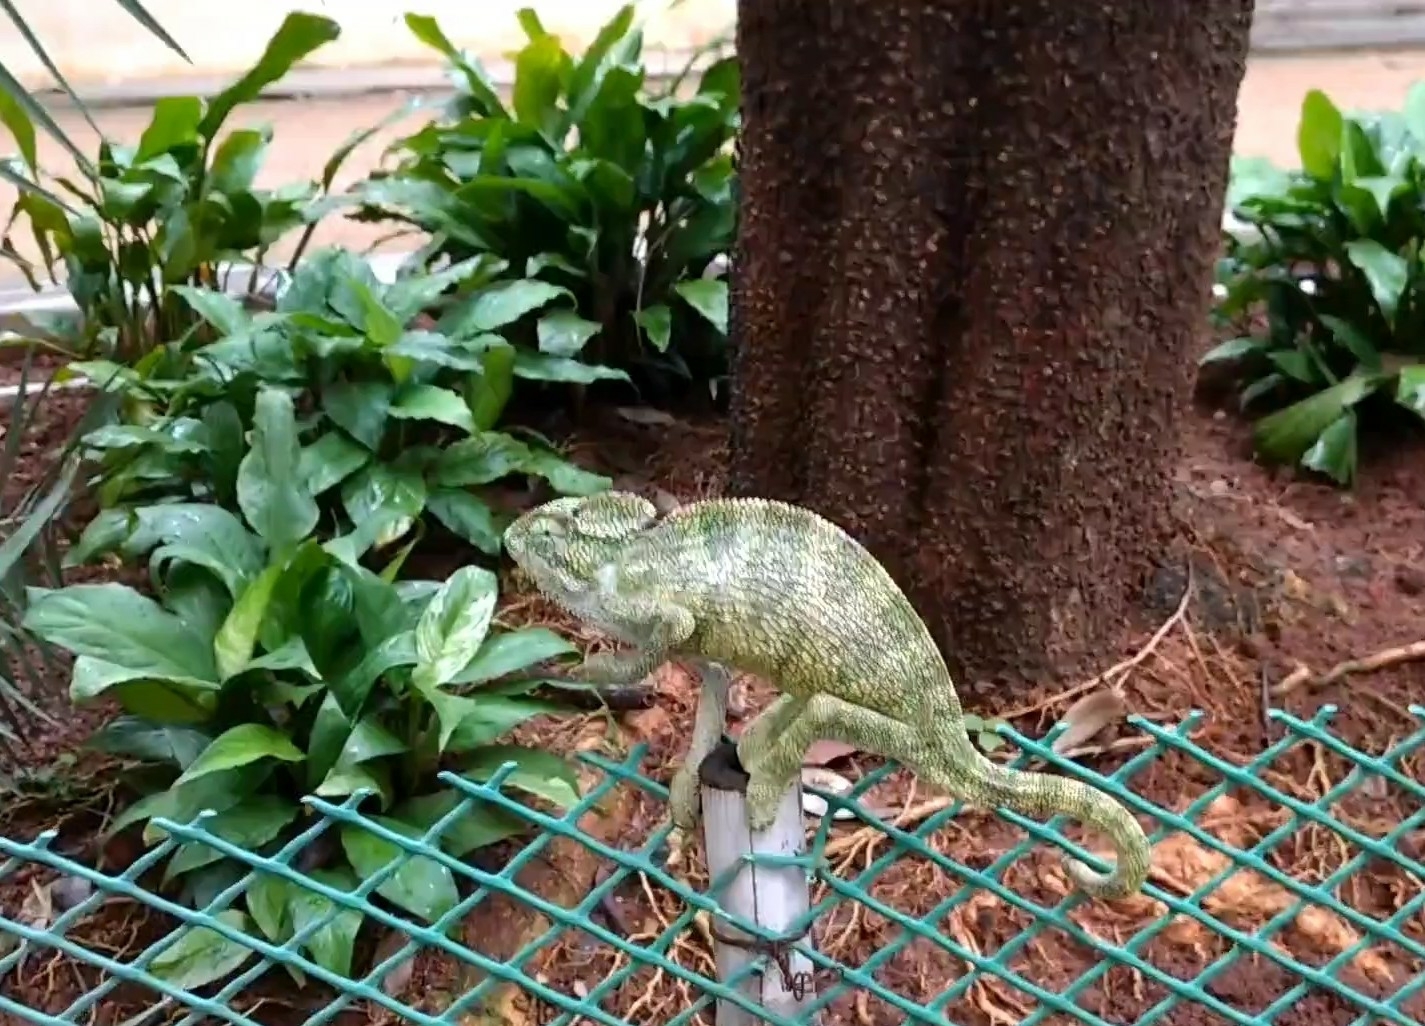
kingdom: Animalia
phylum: Chordata
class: Squamata
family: Chamaeleonidae
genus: Chamaeleo
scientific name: Chamaeleo zeylanicus
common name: Indian chameleon
